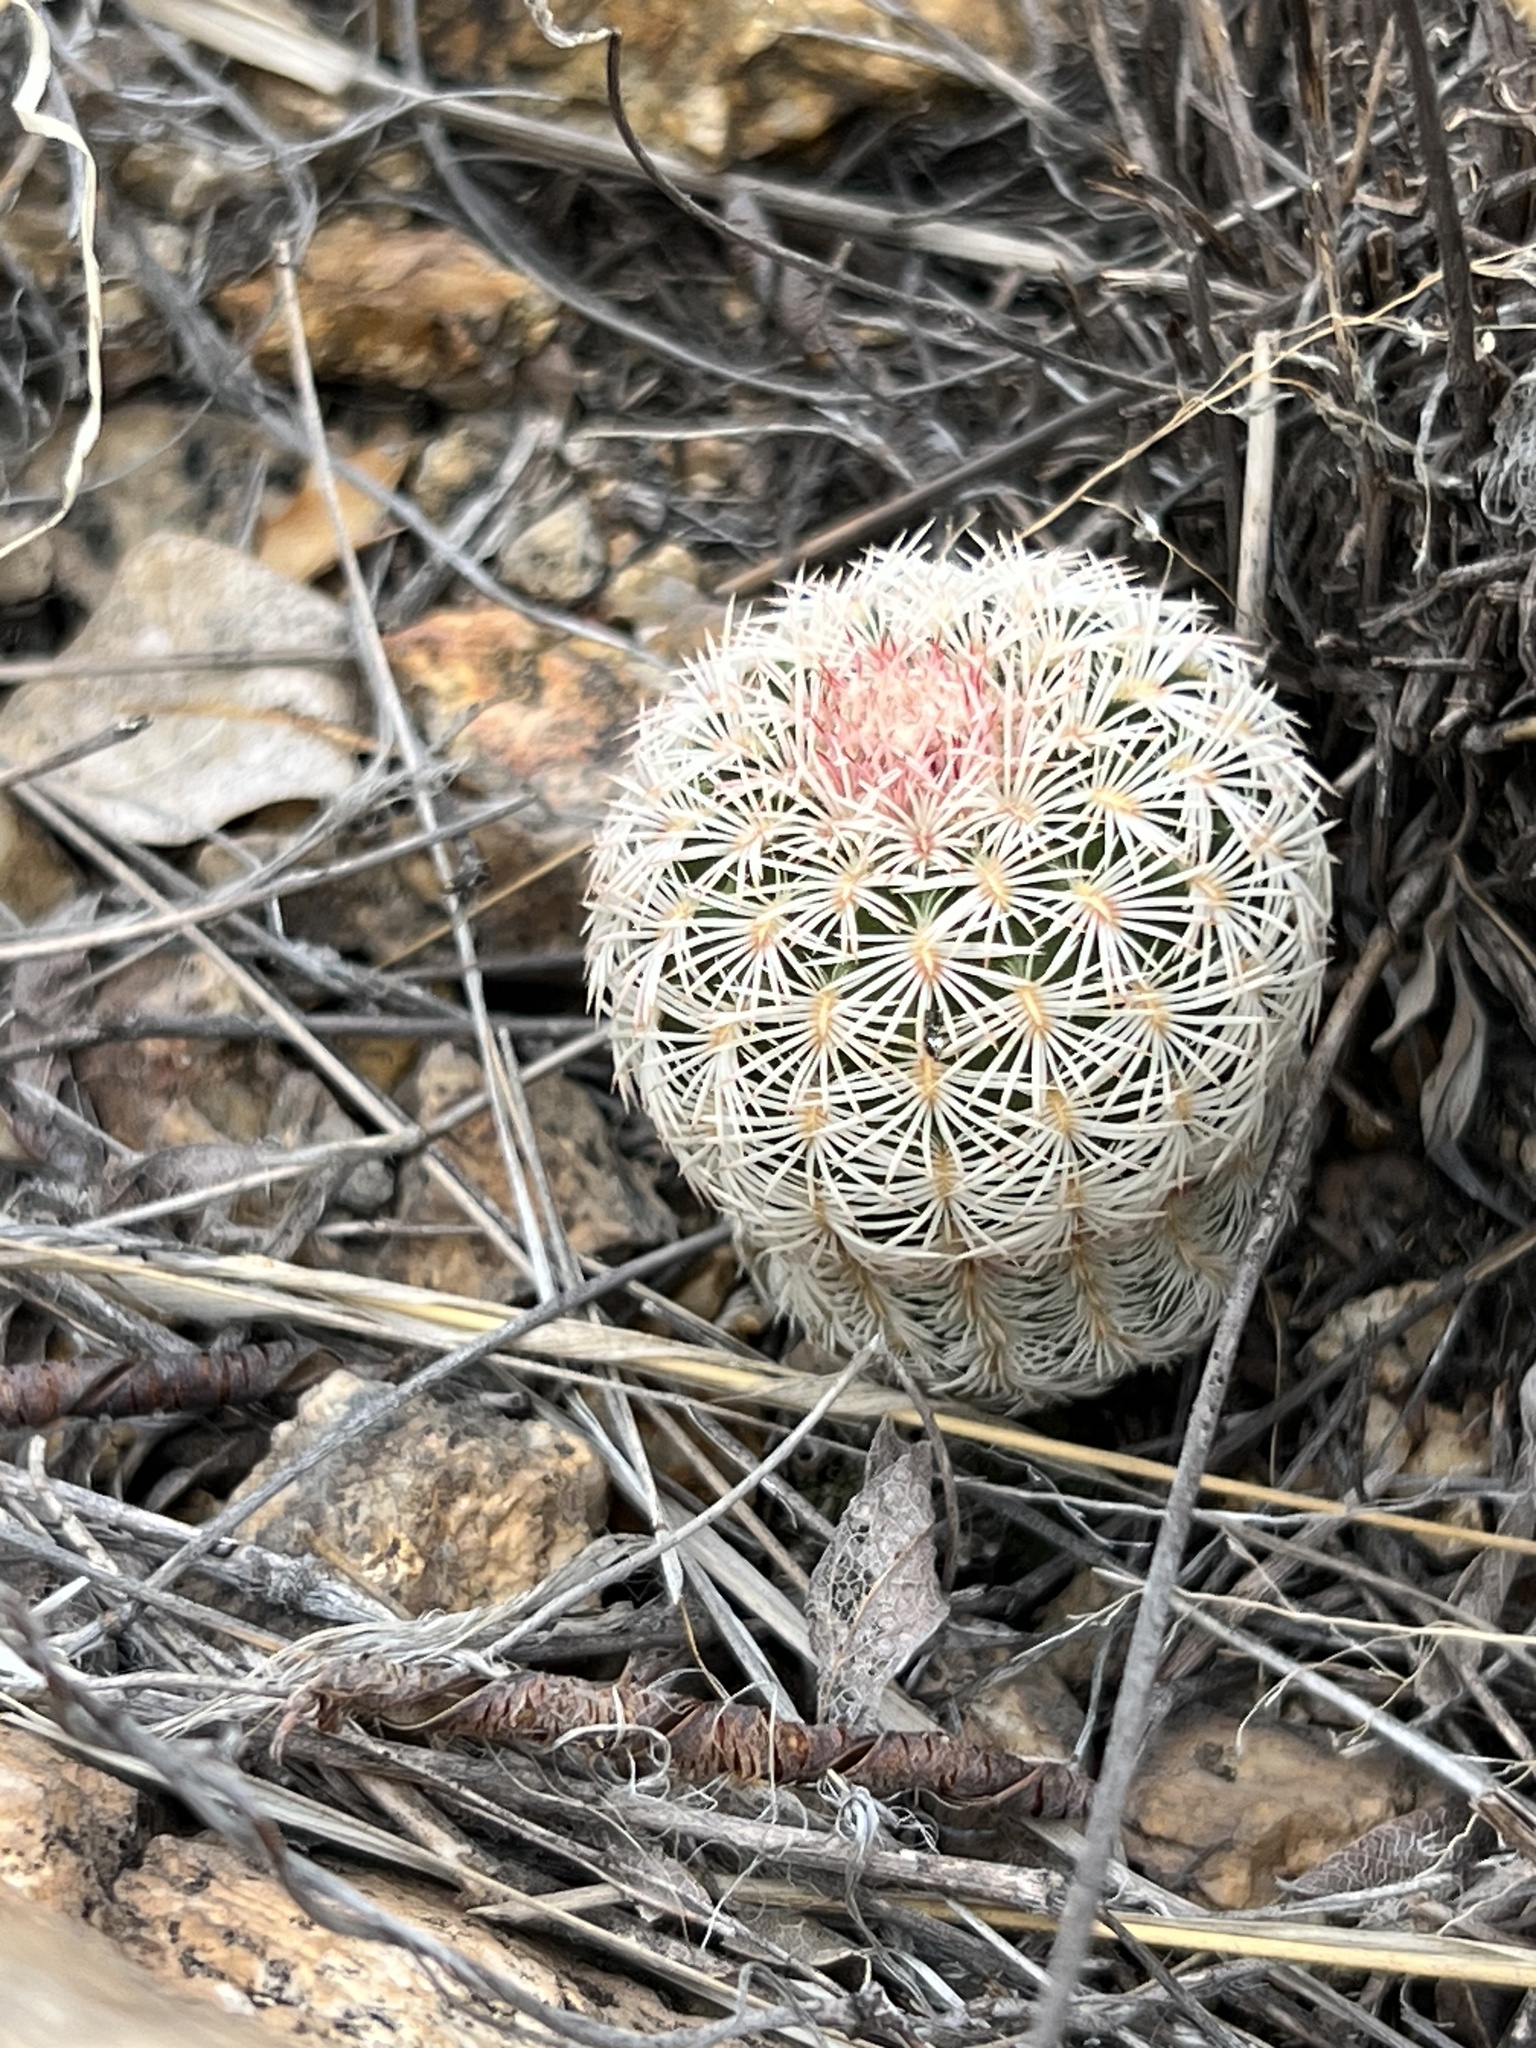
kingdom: Plantae
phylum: Tracheophyta
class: Magnoliopsida
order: Caryophyllales
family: Cactaceae
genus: Echinocereus
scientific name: Echinocereus rigidissimus
